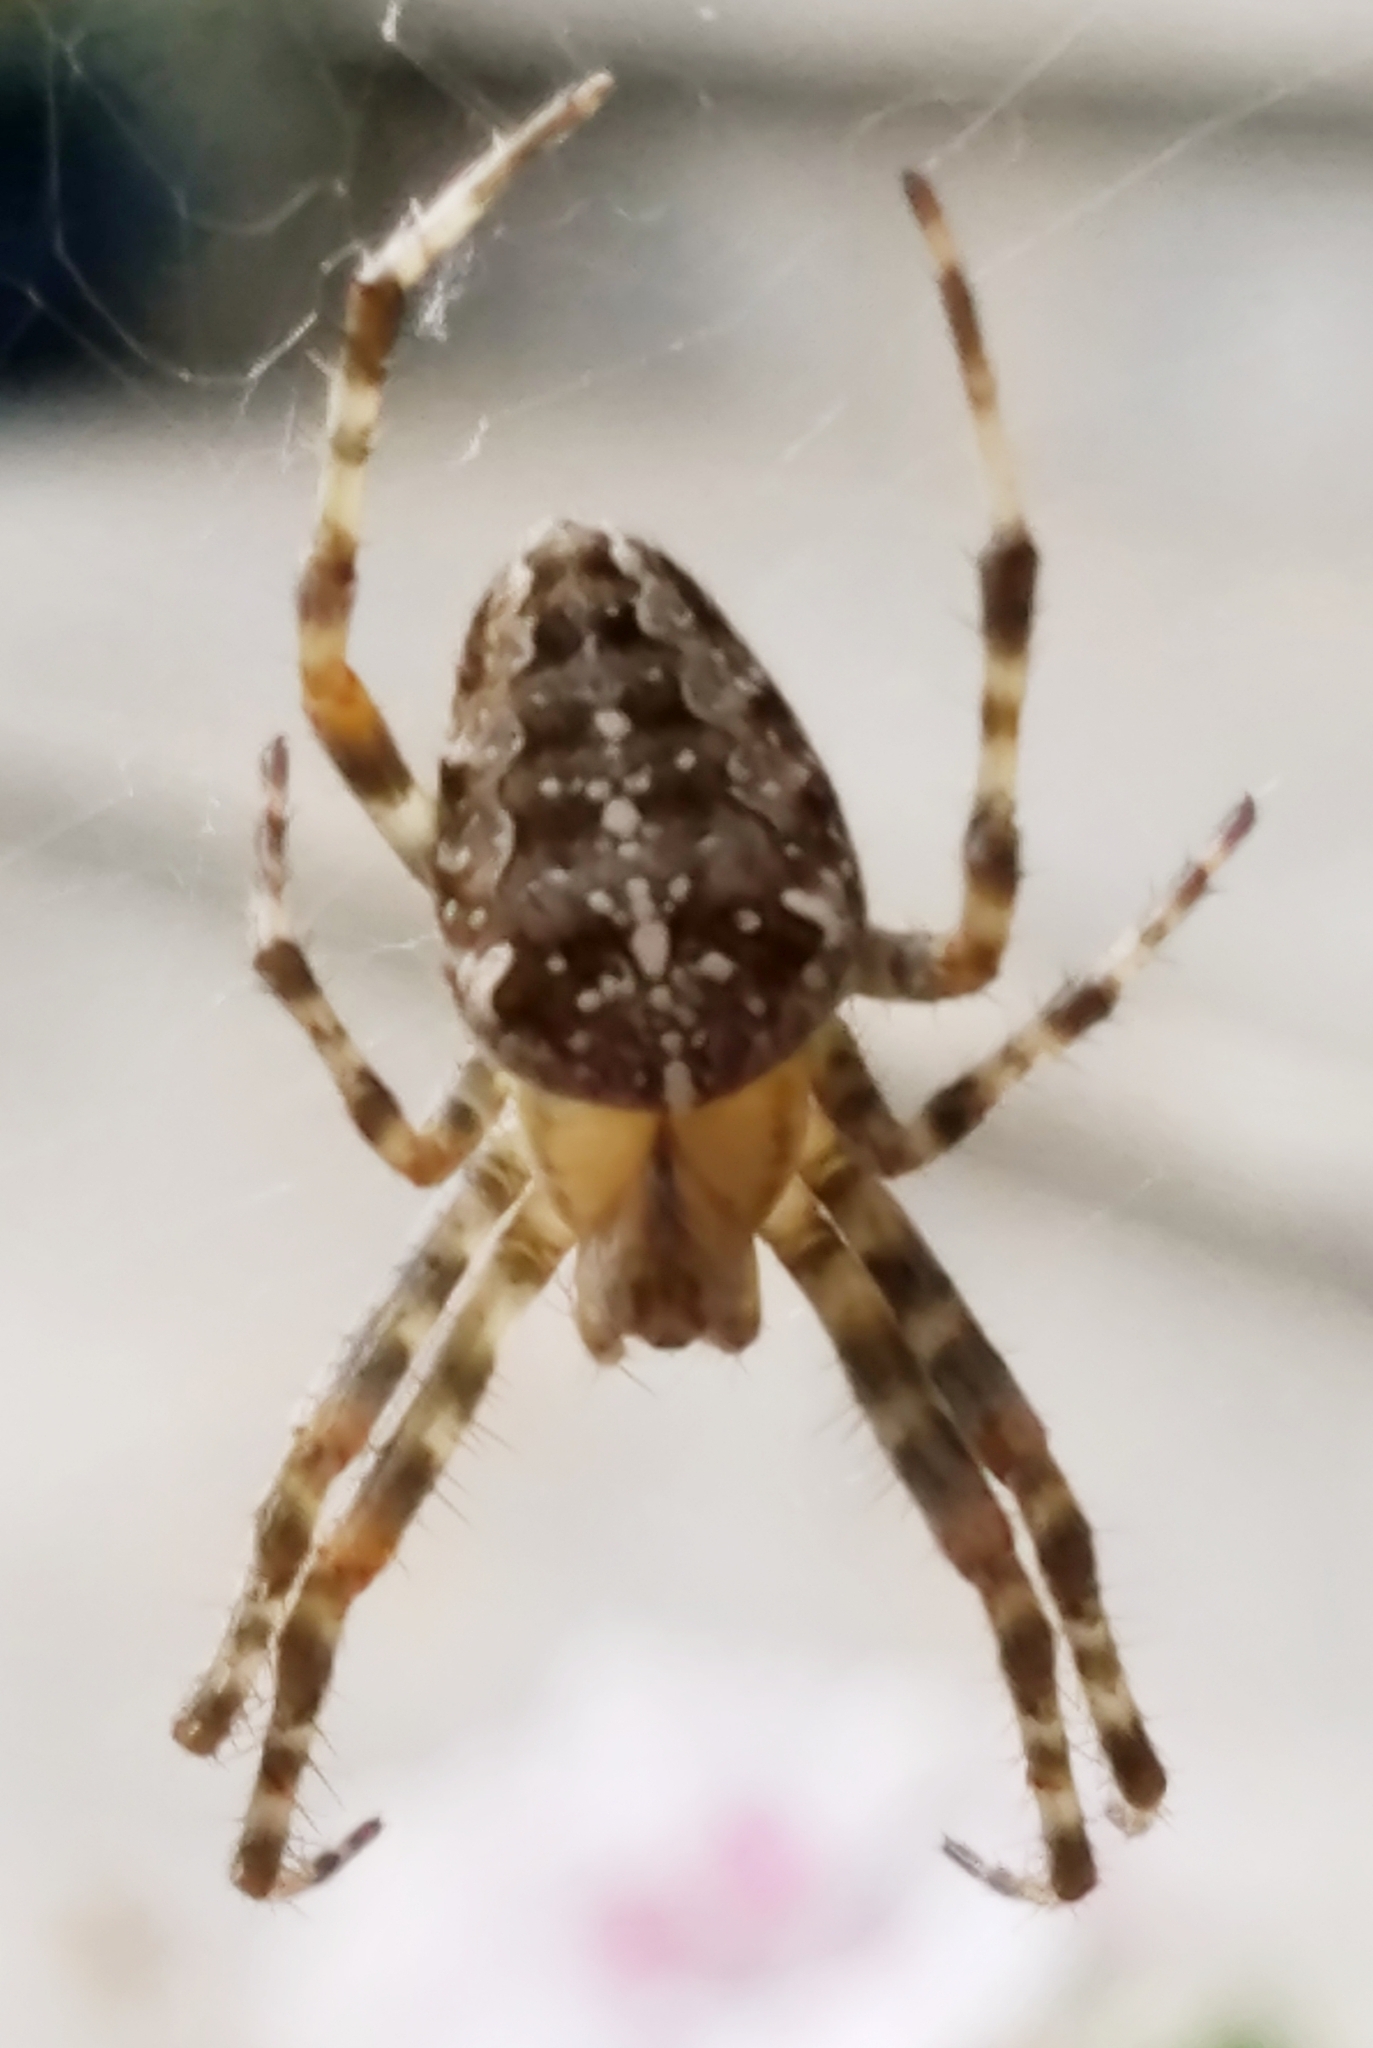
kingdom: Animalia
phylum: Arthropoda
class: Arachnida
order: Araneae
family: Araneidae
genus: Araneus
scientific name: Araneus diadematus
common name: Cross orbweaver
